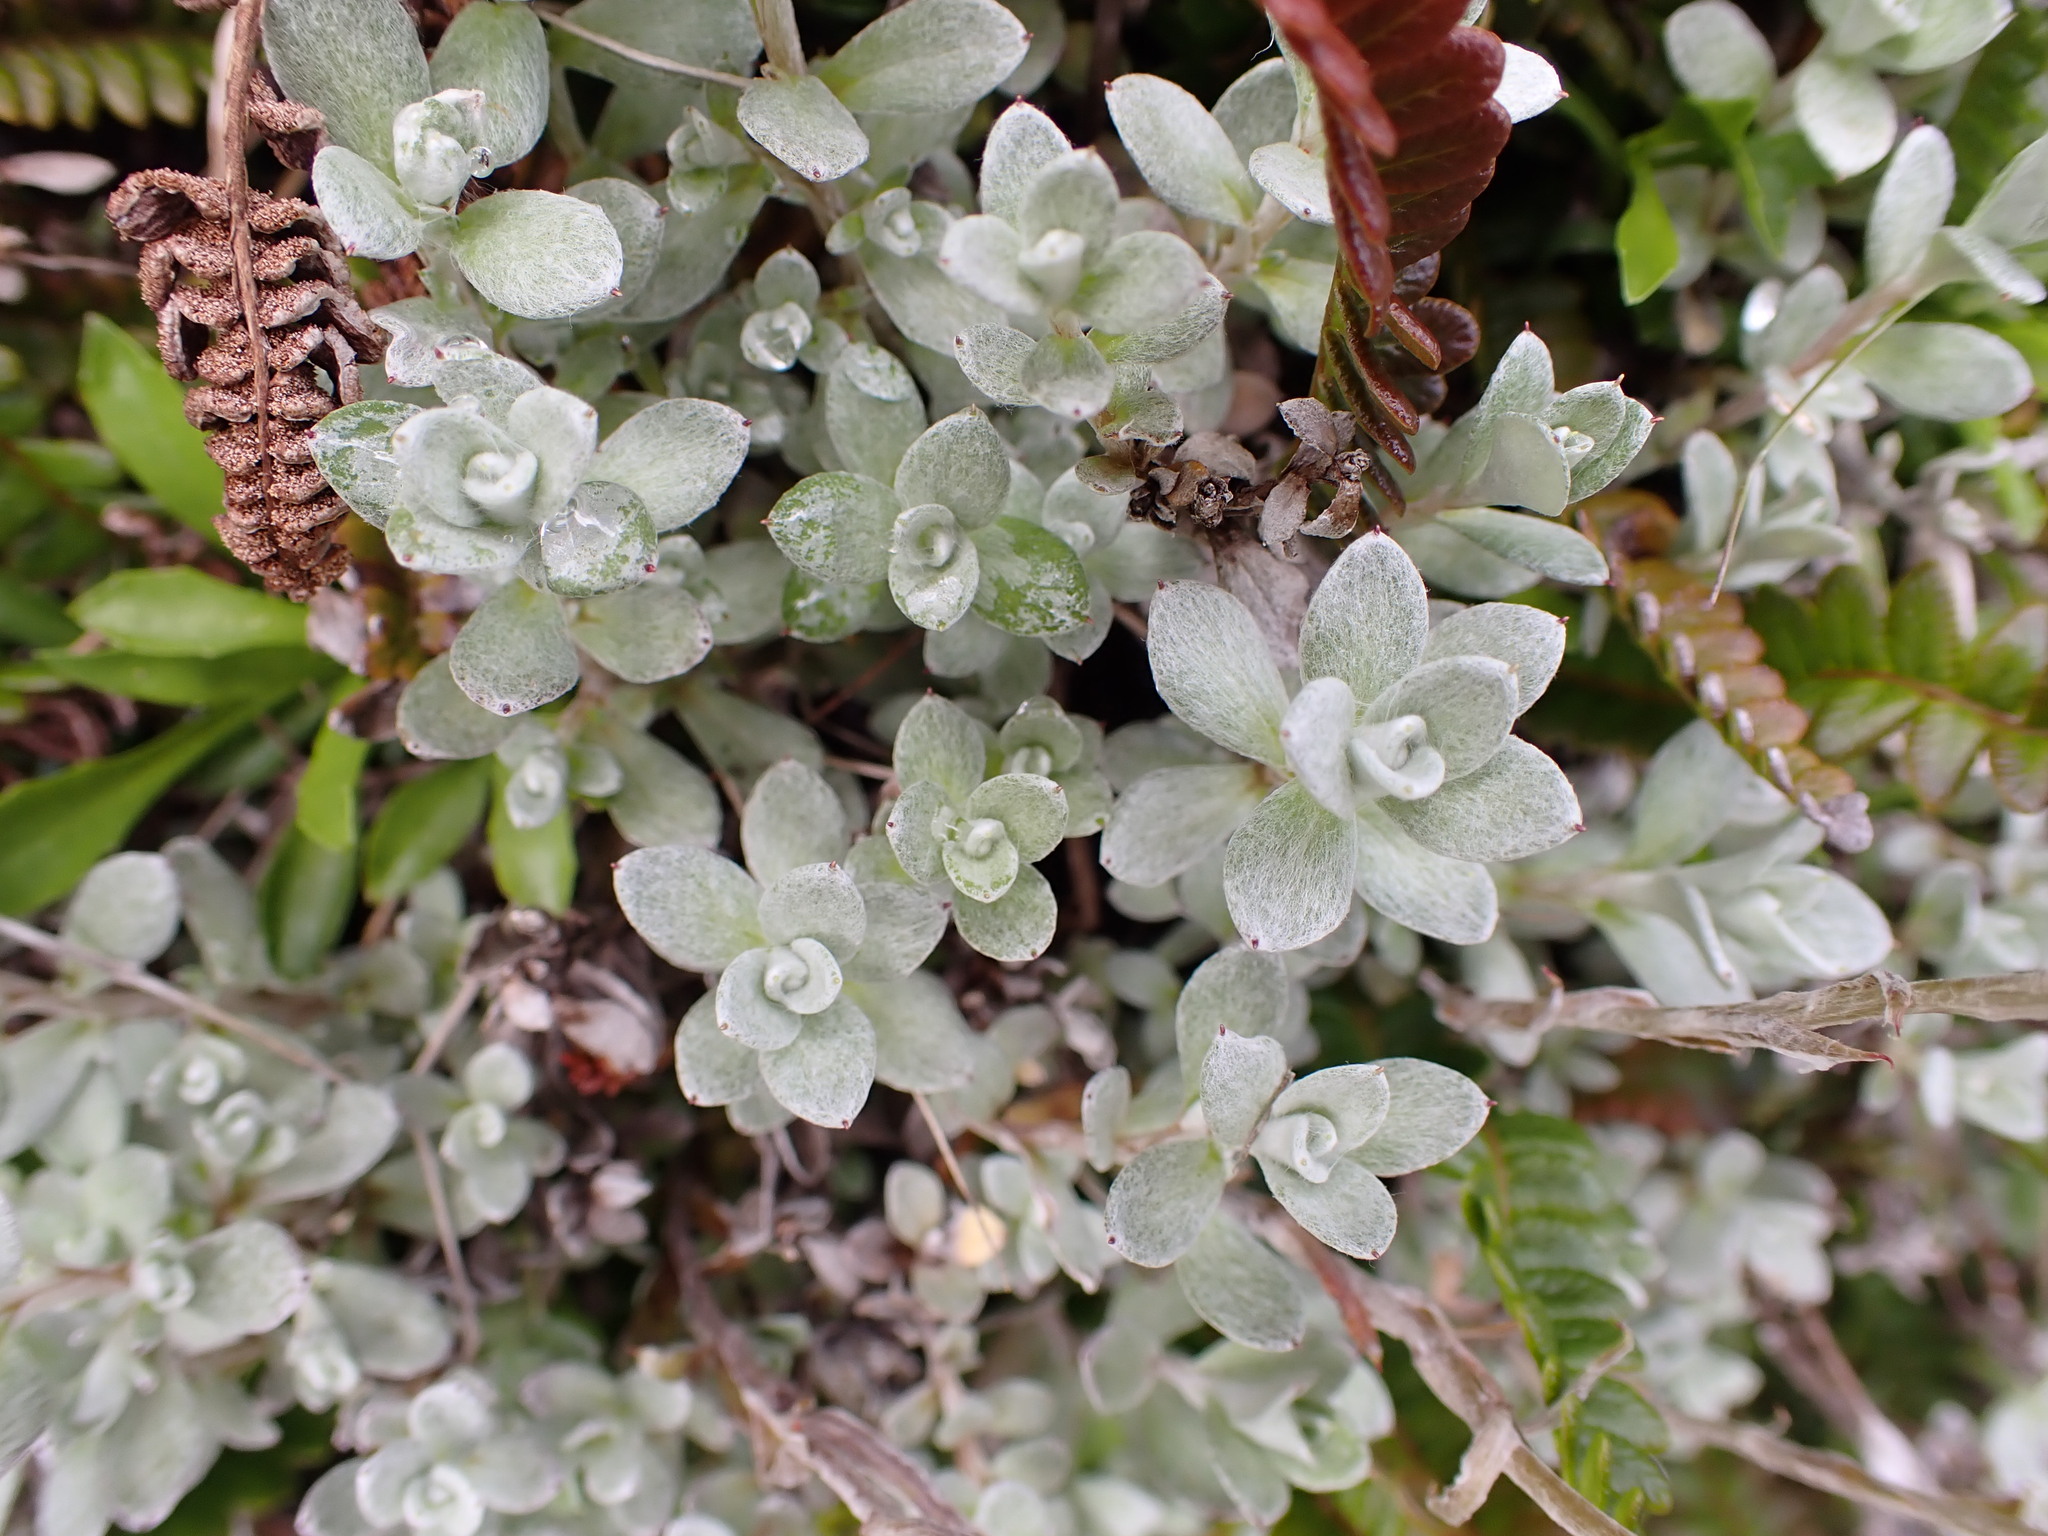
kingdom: Plantae
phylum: Tracheophyta
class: Magnoliopsida
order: Asterales
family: Asteraceae
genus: Anaphalioides
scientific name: Anaphalioides bellidioides
